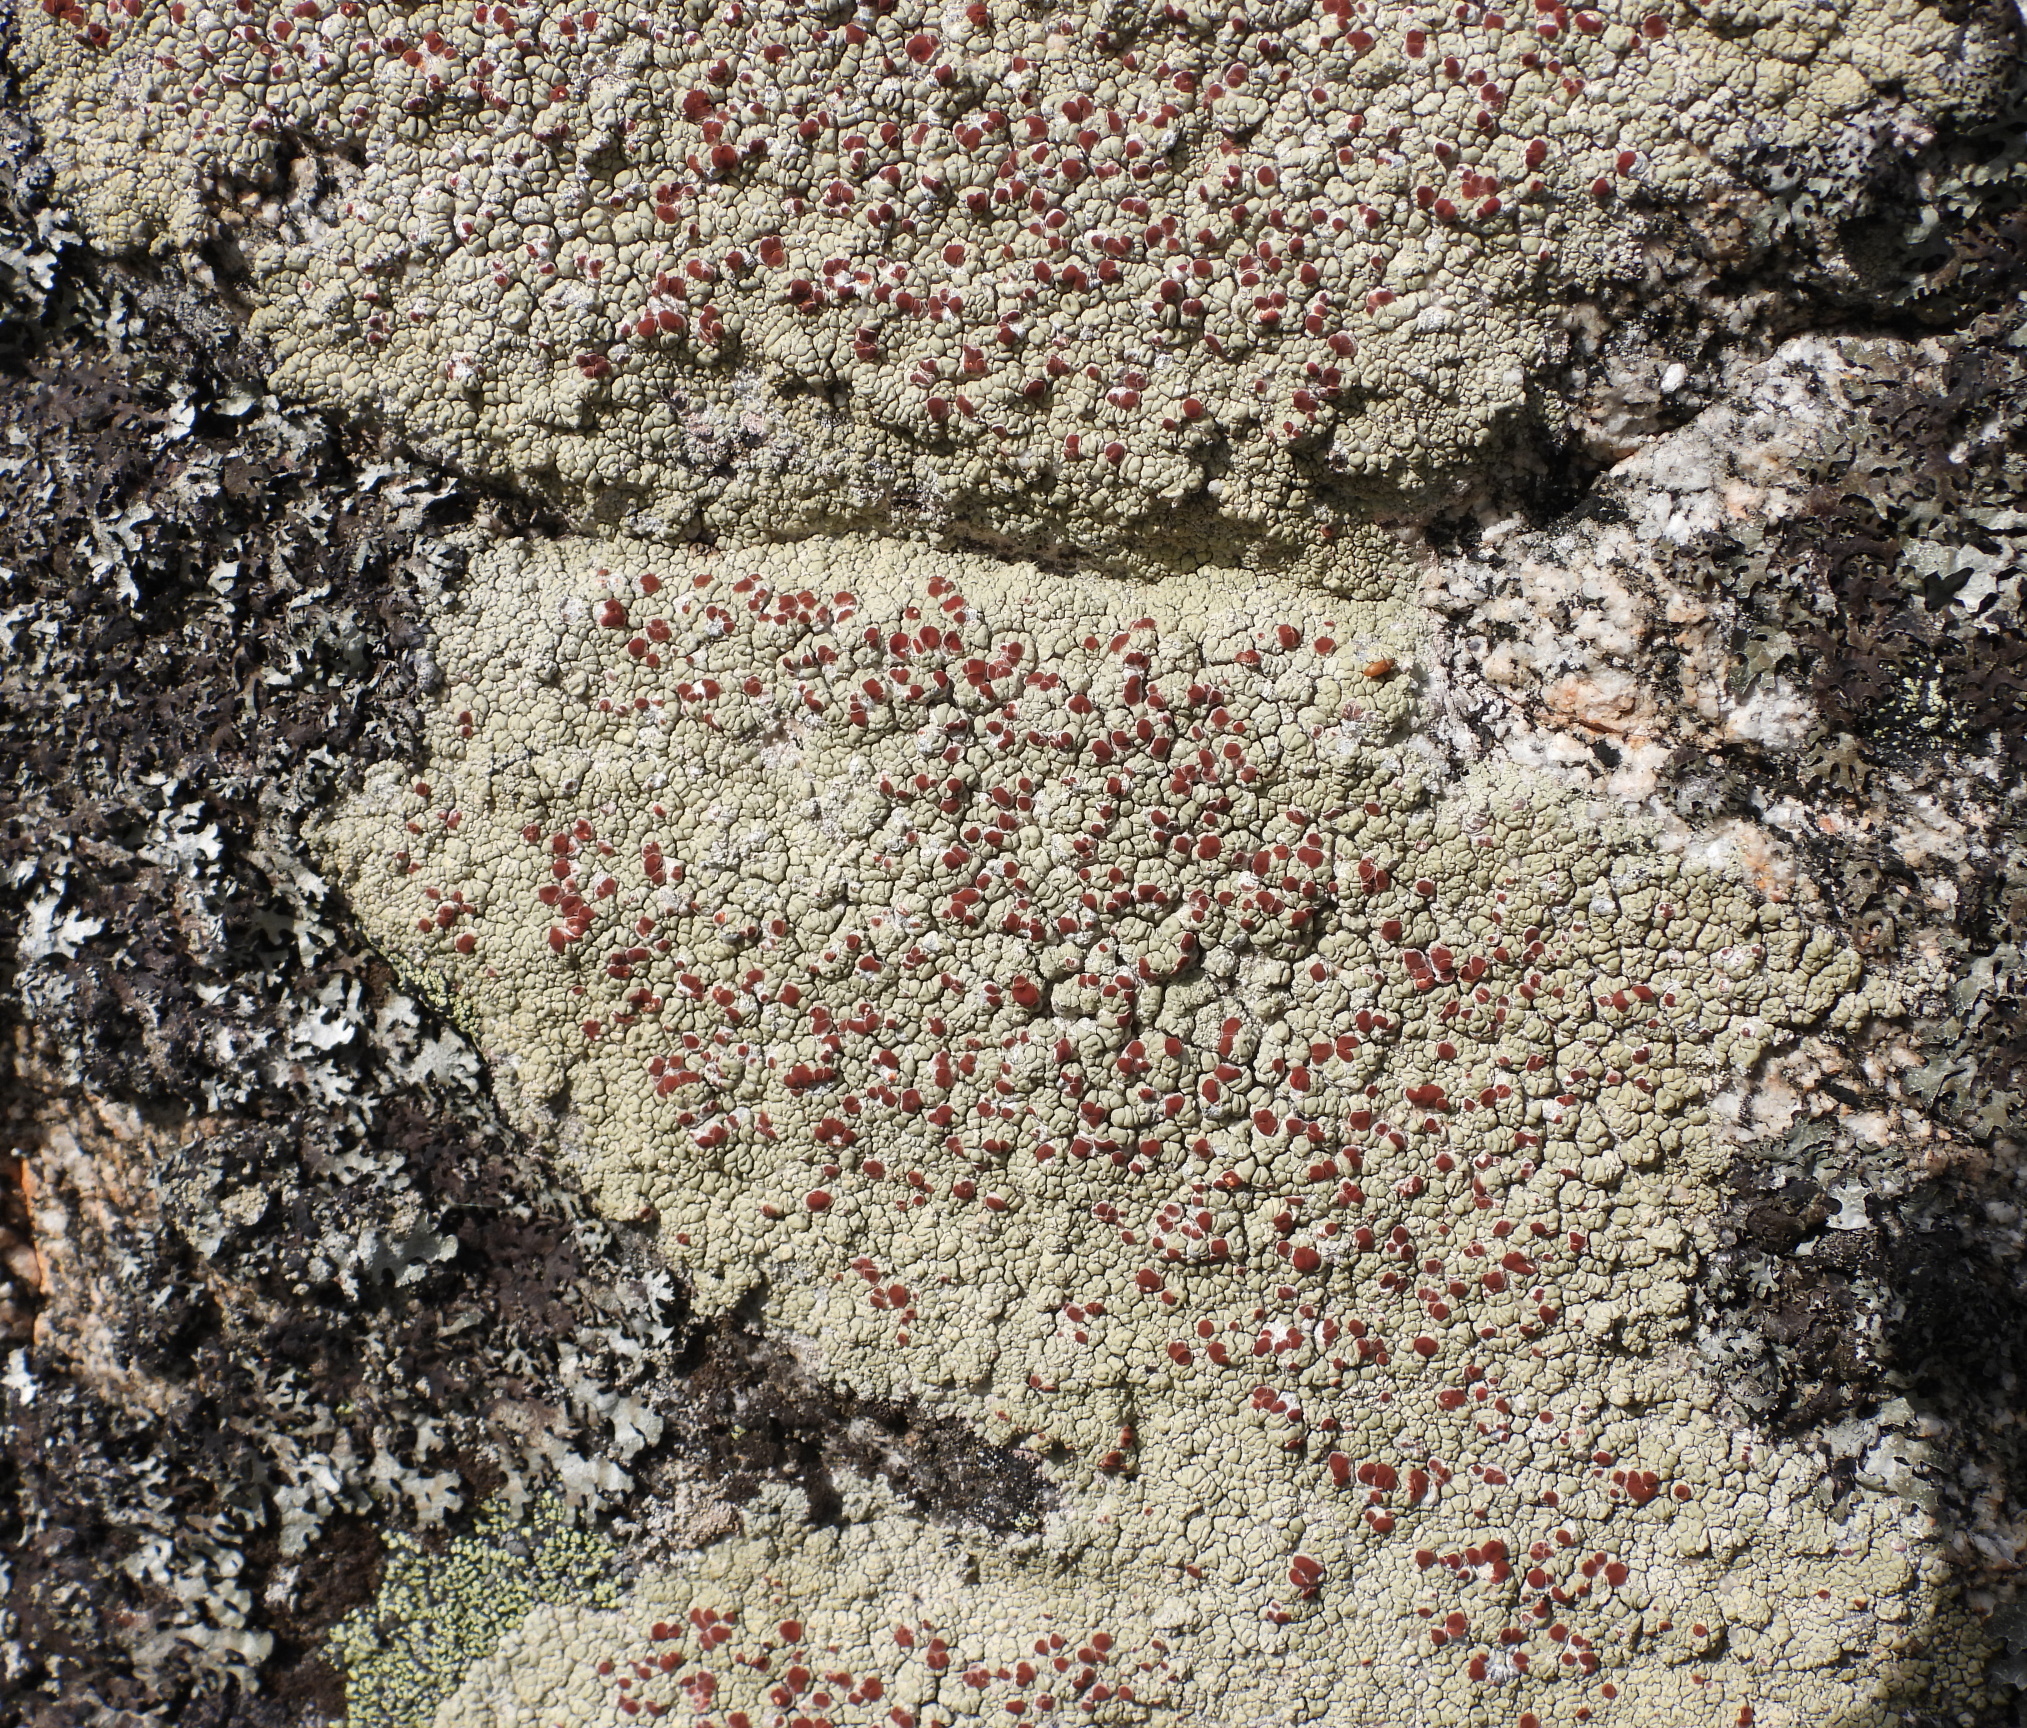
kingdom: Fungi
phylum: Ascomycota
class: Lecanoromycetes
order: Umbilicariales
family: Ophioparmaceae
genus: Ophioparma
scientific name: Ophioparma ventosa
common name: Blood-spot
